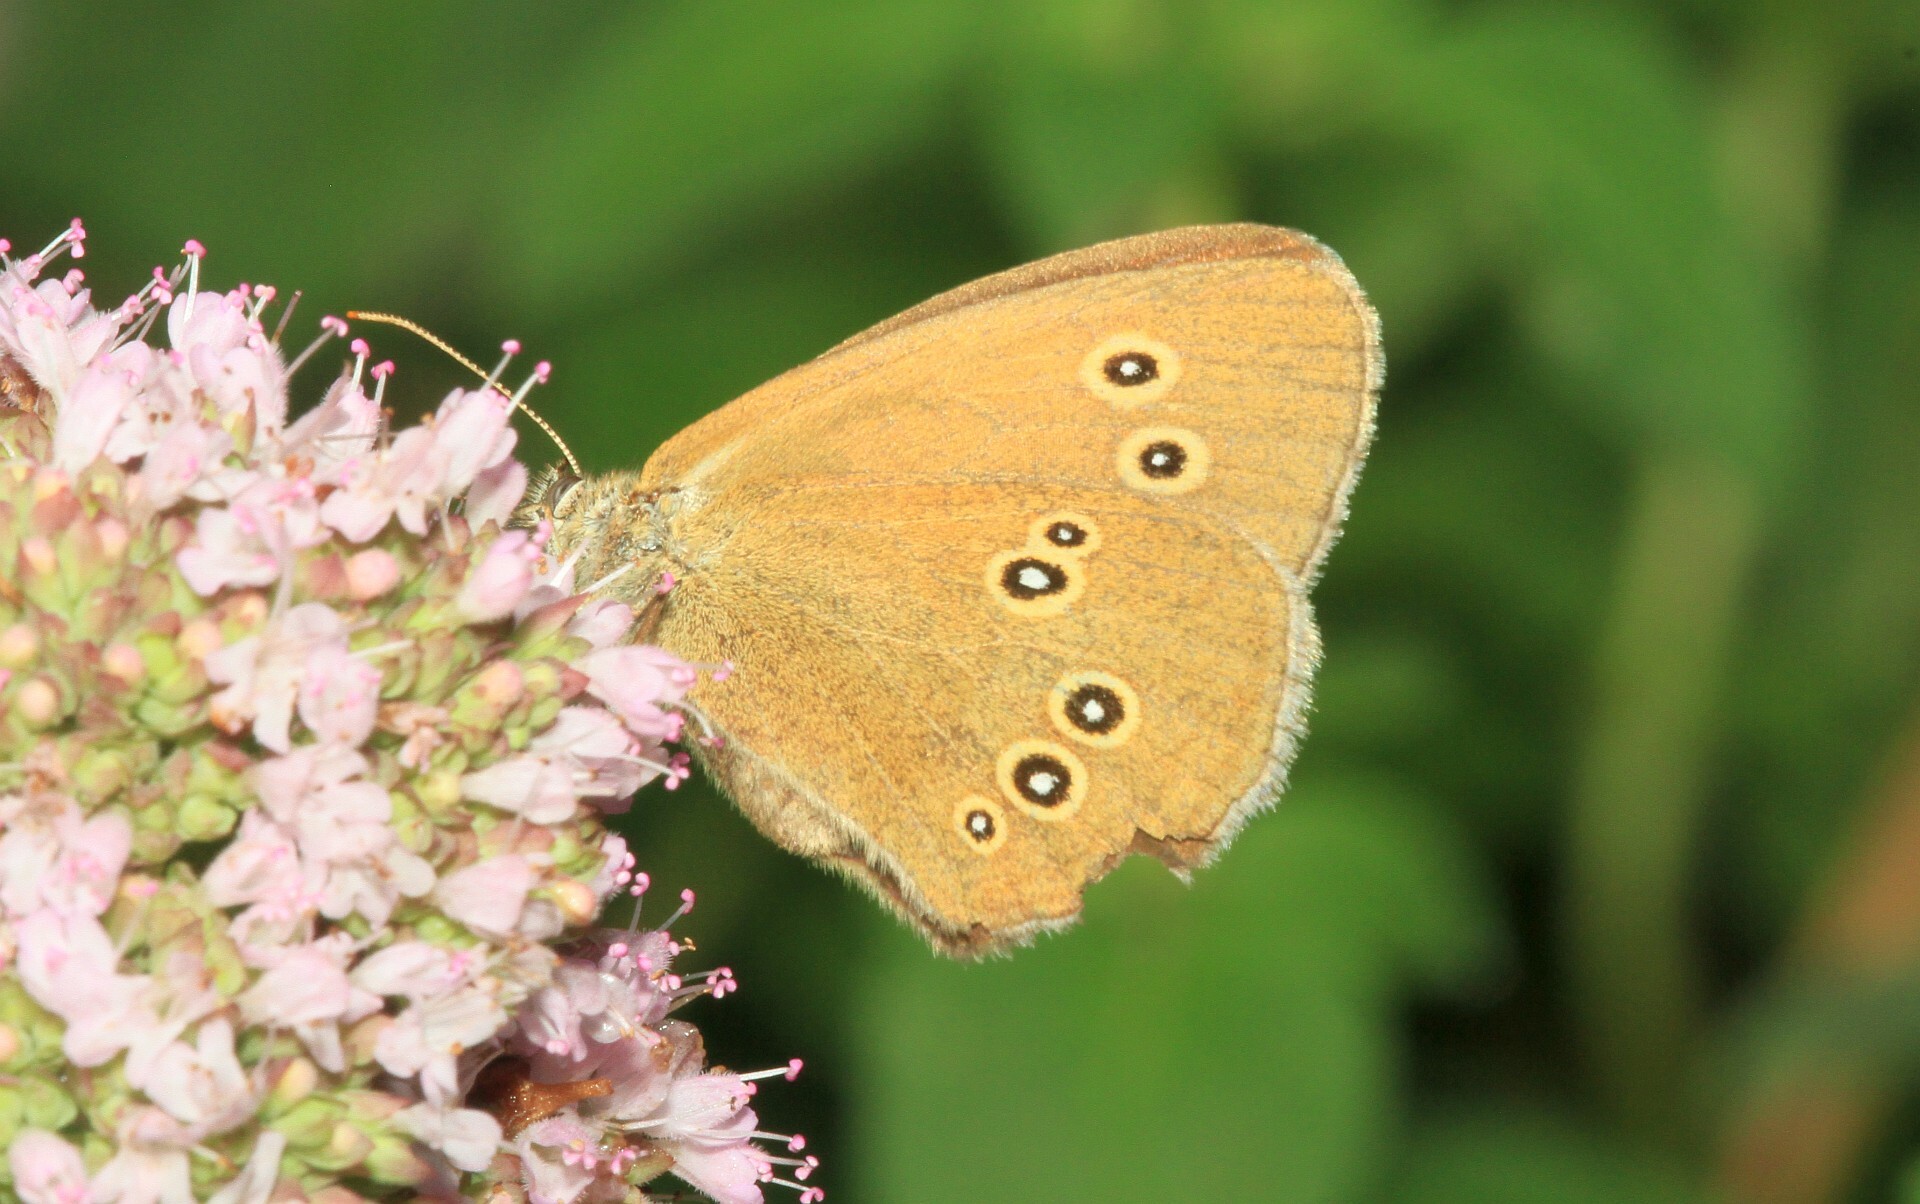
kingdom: Animalia
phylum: Arthropoda
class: Insecta
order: Lepidoptera
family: Nymphalidae
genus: Aphantopus
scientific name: Aphantopus hyperantus
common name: Ringlet
